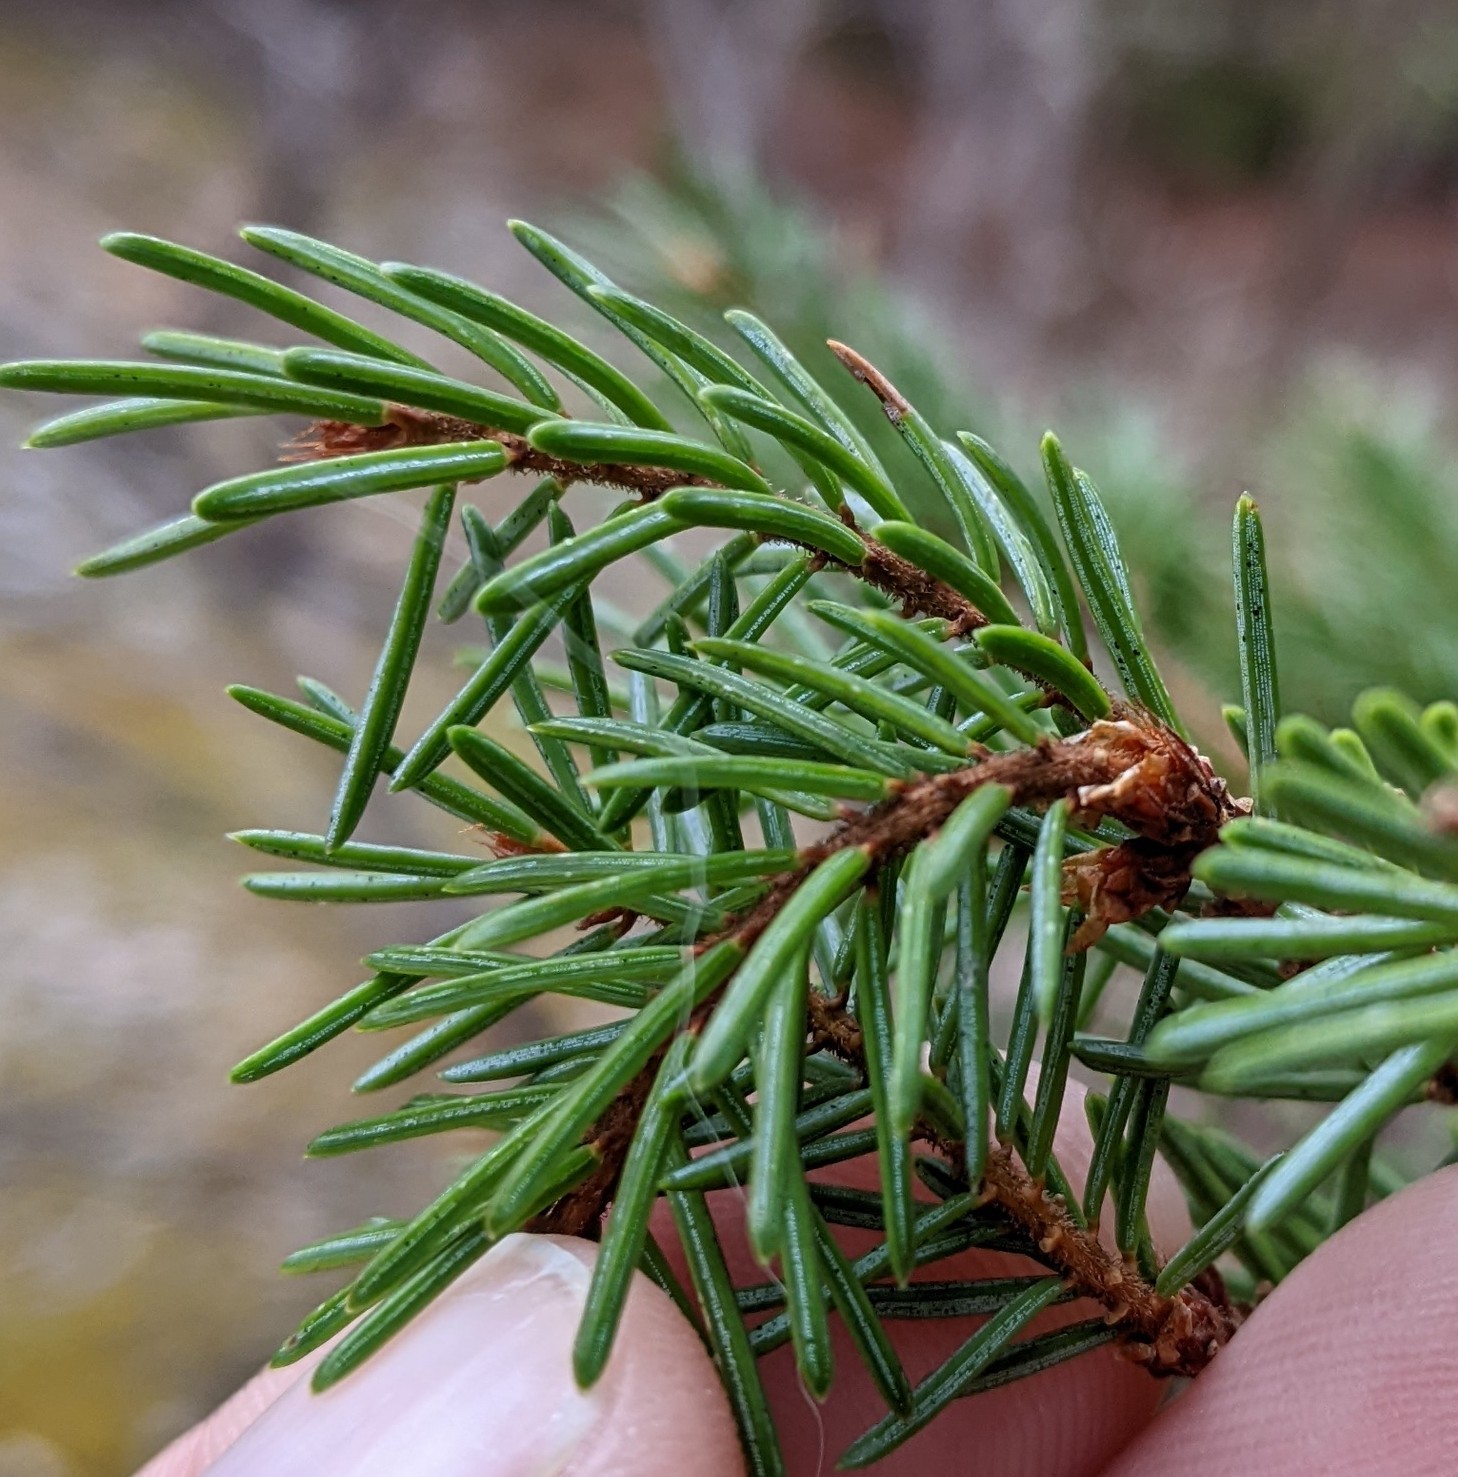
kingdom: Plantae
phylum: Tracheophyta
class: Pinopsida
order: Pinales
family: Pinaceae
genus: Picea
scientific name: Picea mariana
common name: Black spruce
